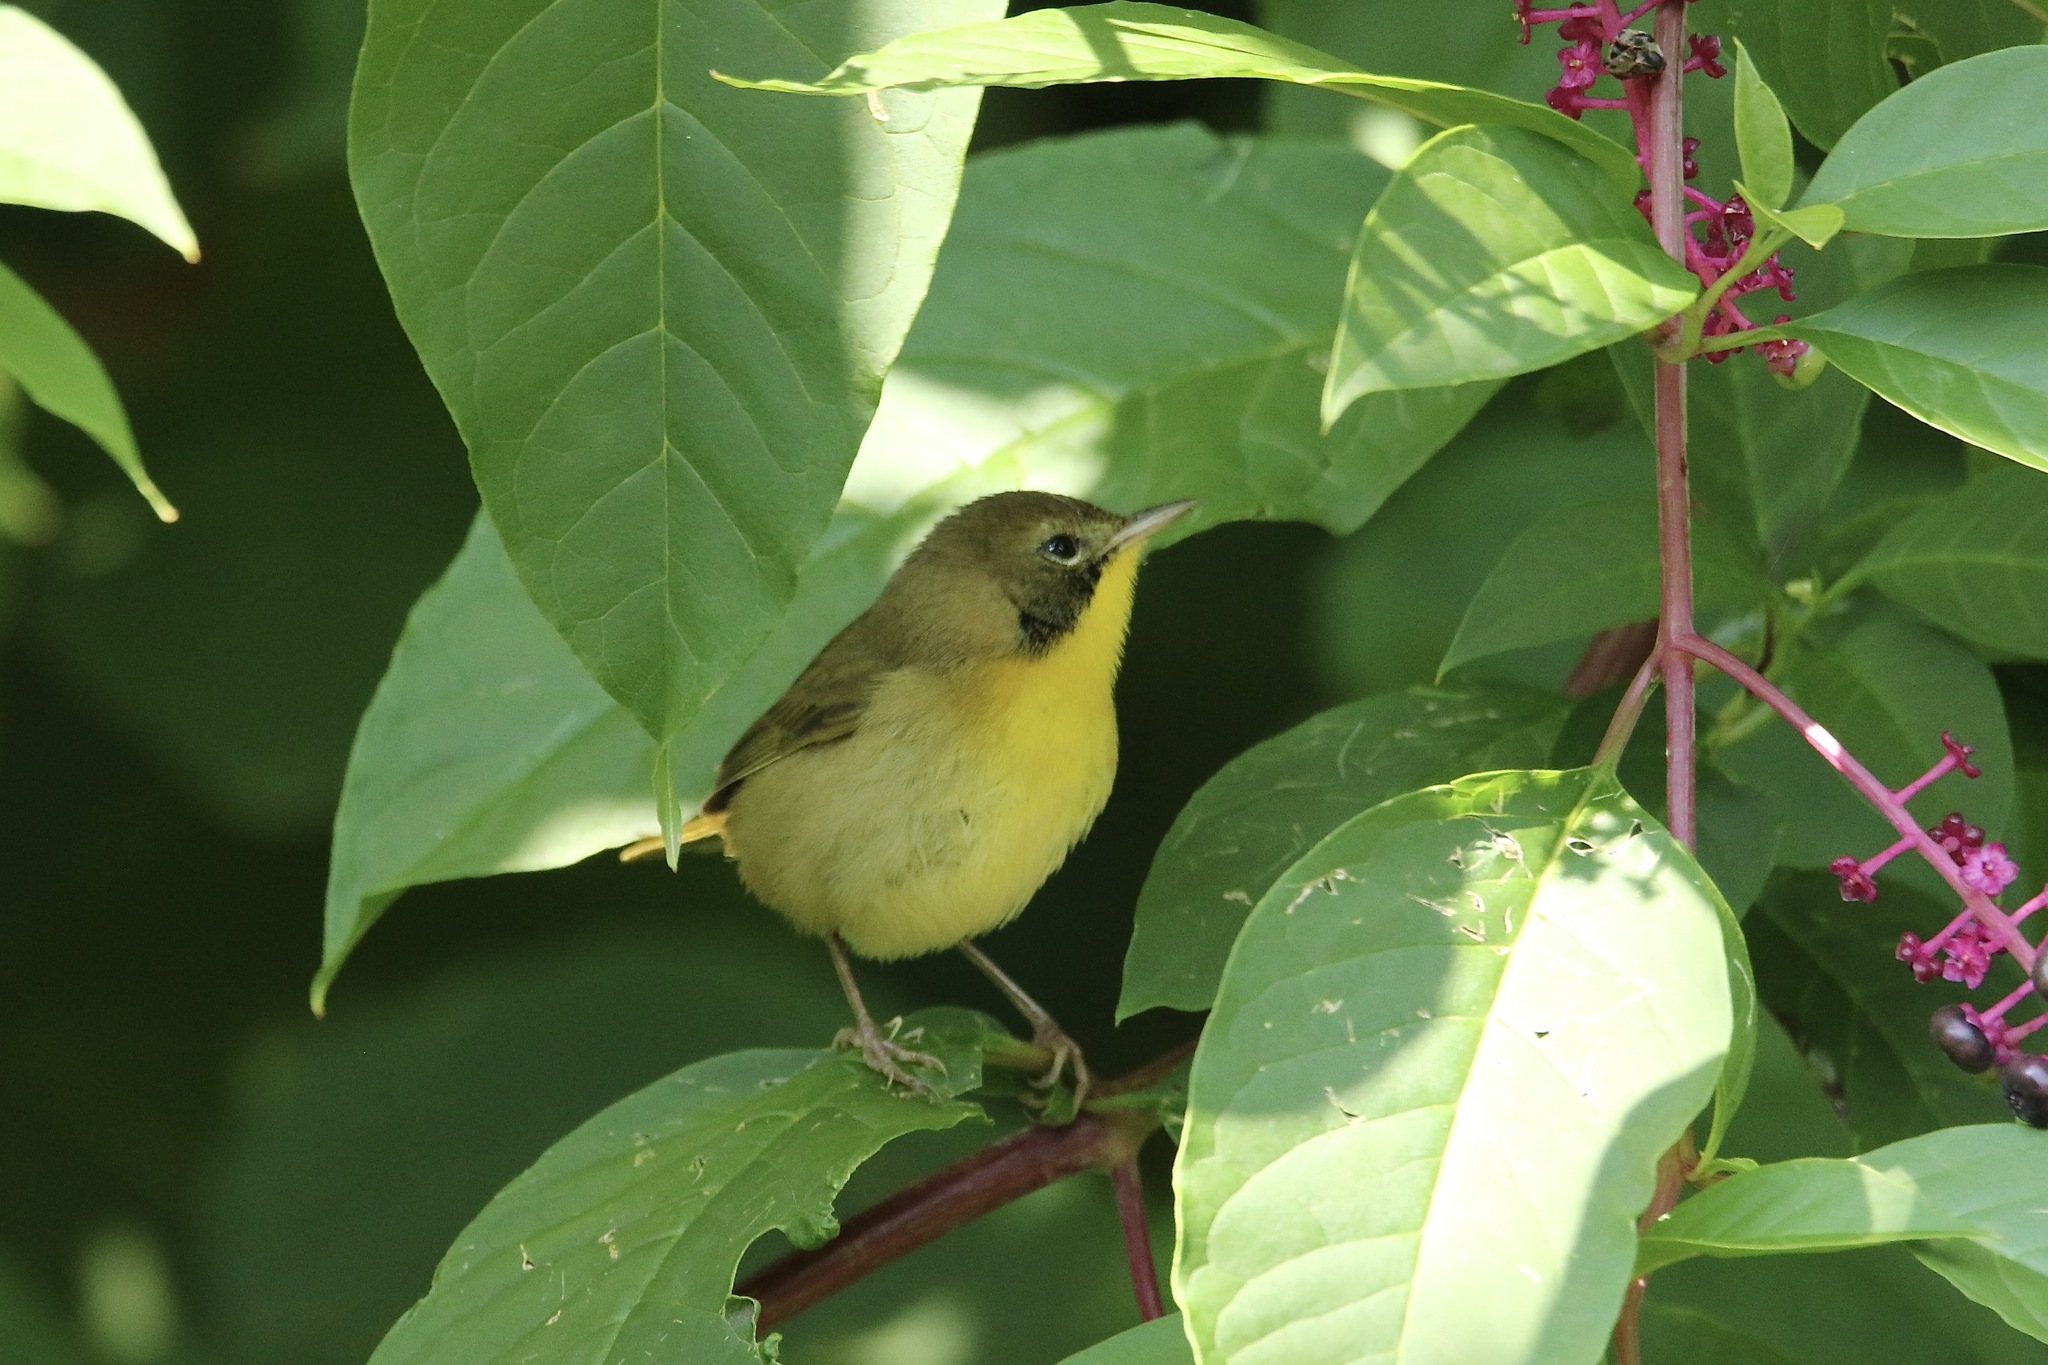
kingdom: Animalia
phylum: Chordata
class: Aves
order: Passeriformes
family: Parulidae
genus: Geothlypis
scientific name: Geothlypis trichas
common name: Common yellowthroat
